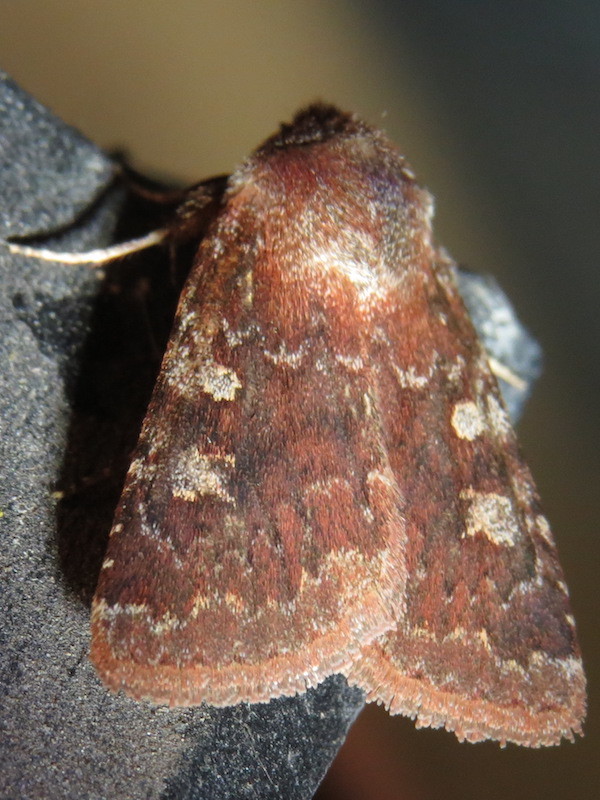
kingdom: Animalia
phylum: Arthropoda
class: Insecta
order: Lepidoptera
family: Noctuidae
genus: Cerastis
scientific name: Cerastis tenebrifera
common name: Reddish speckled dart
